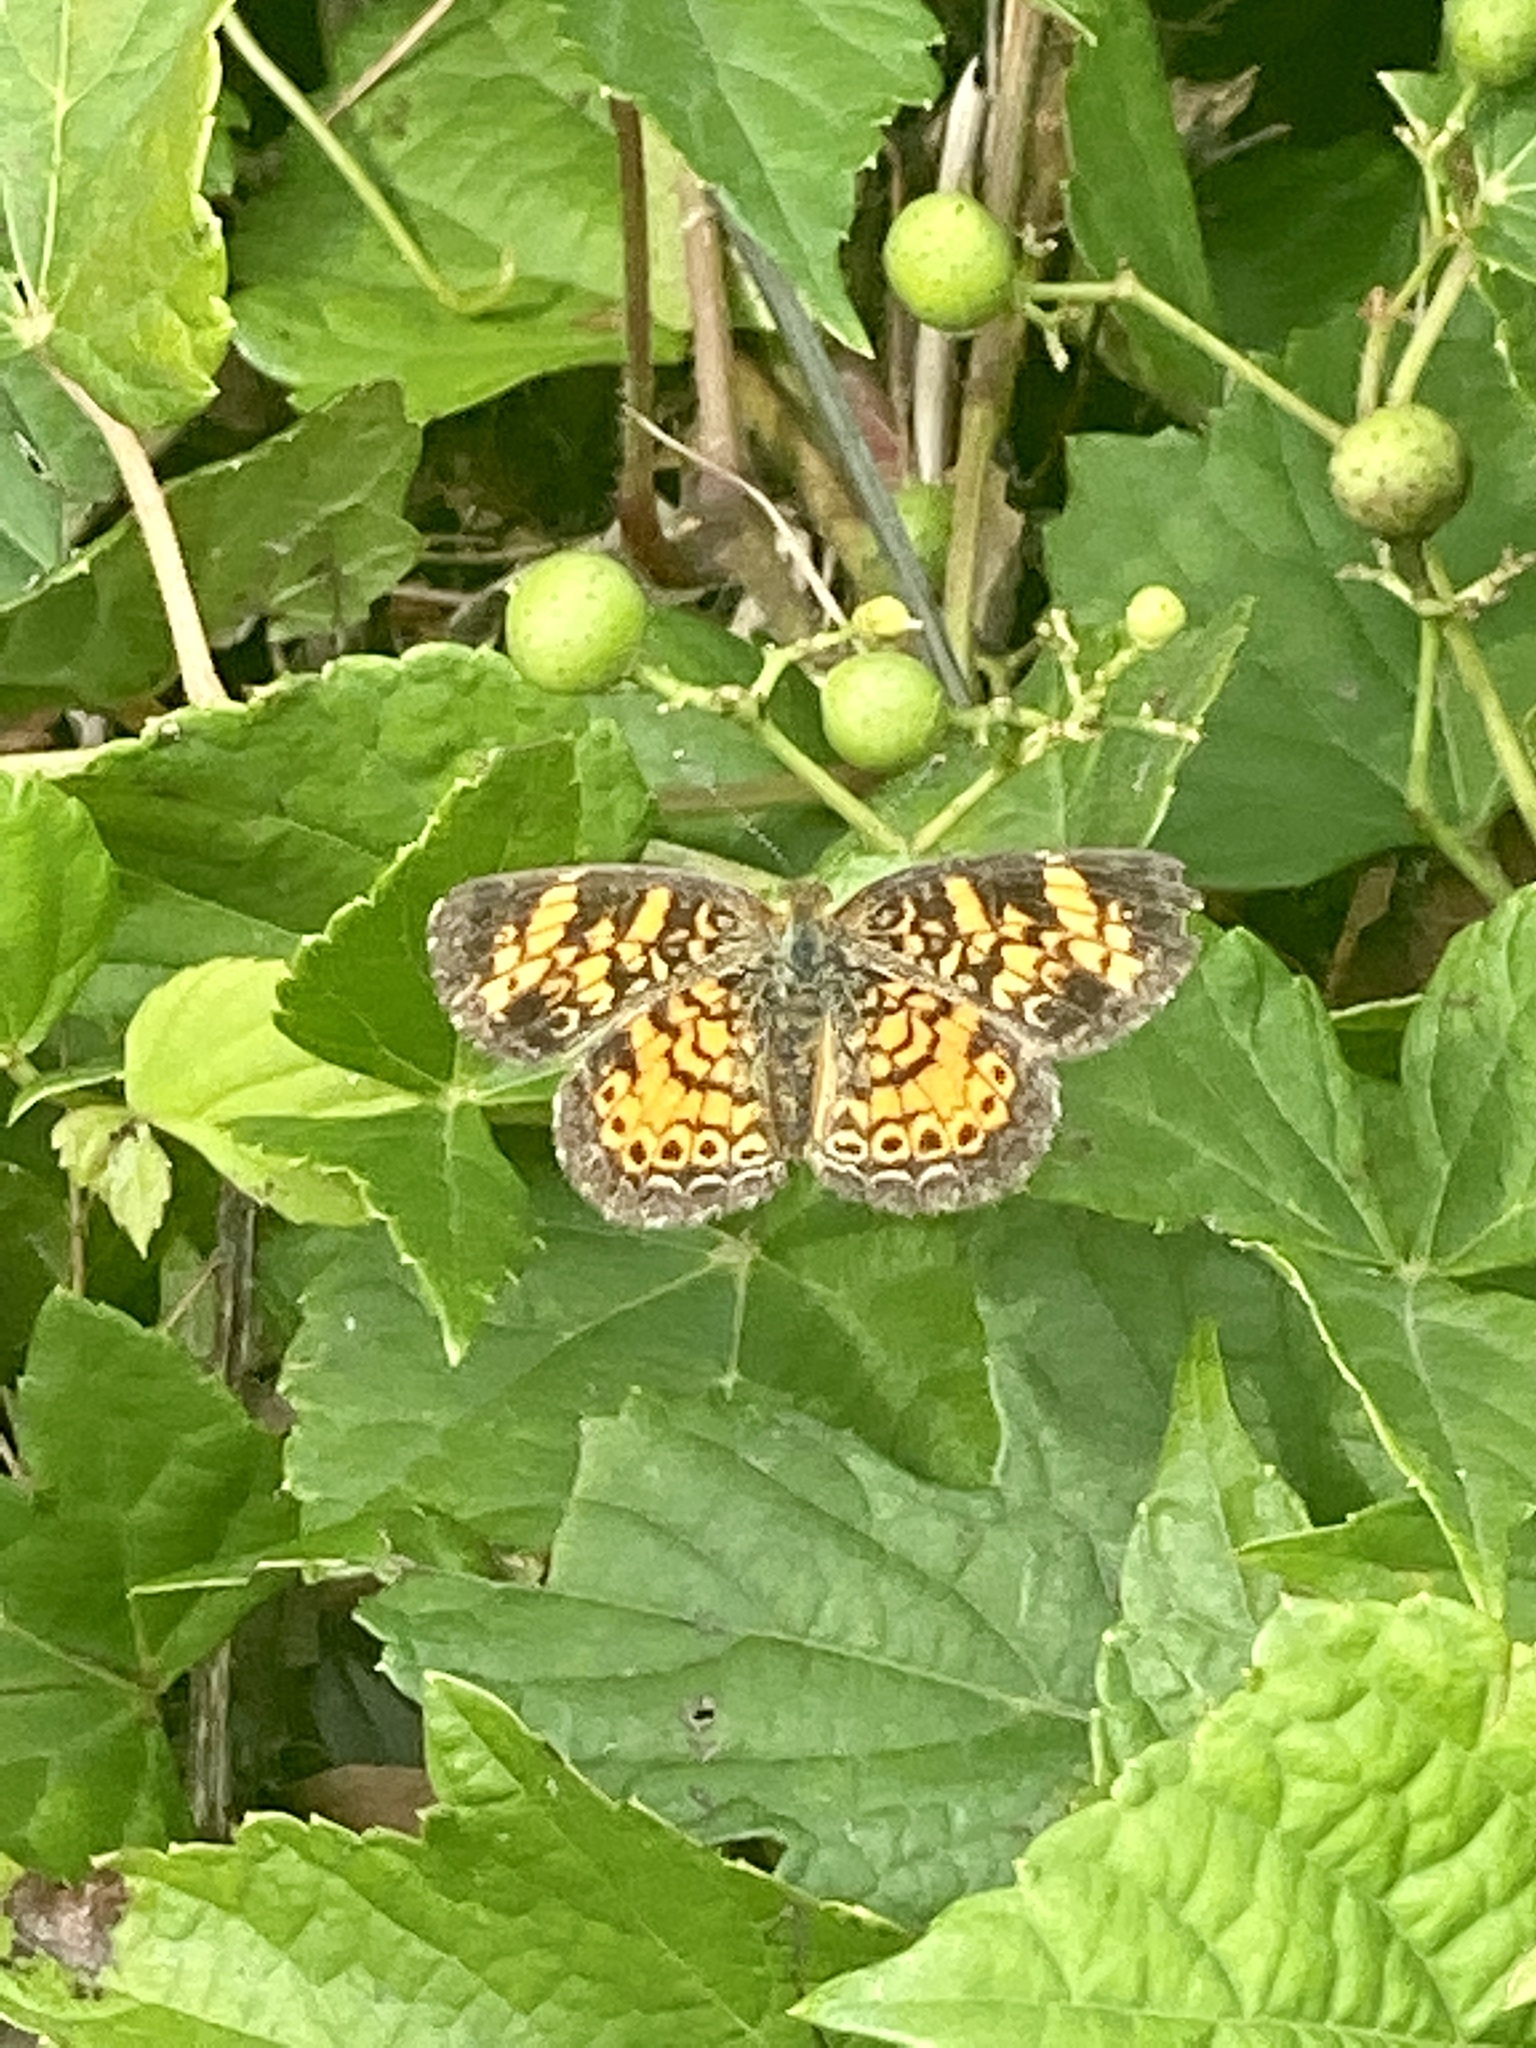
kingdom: Animalia
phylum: Arthropoda
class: Insecta
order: Lepidoptera
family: Nymphalidae
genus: Phyciodes
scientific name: Phyciodes tharos
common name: Pearl crescent
